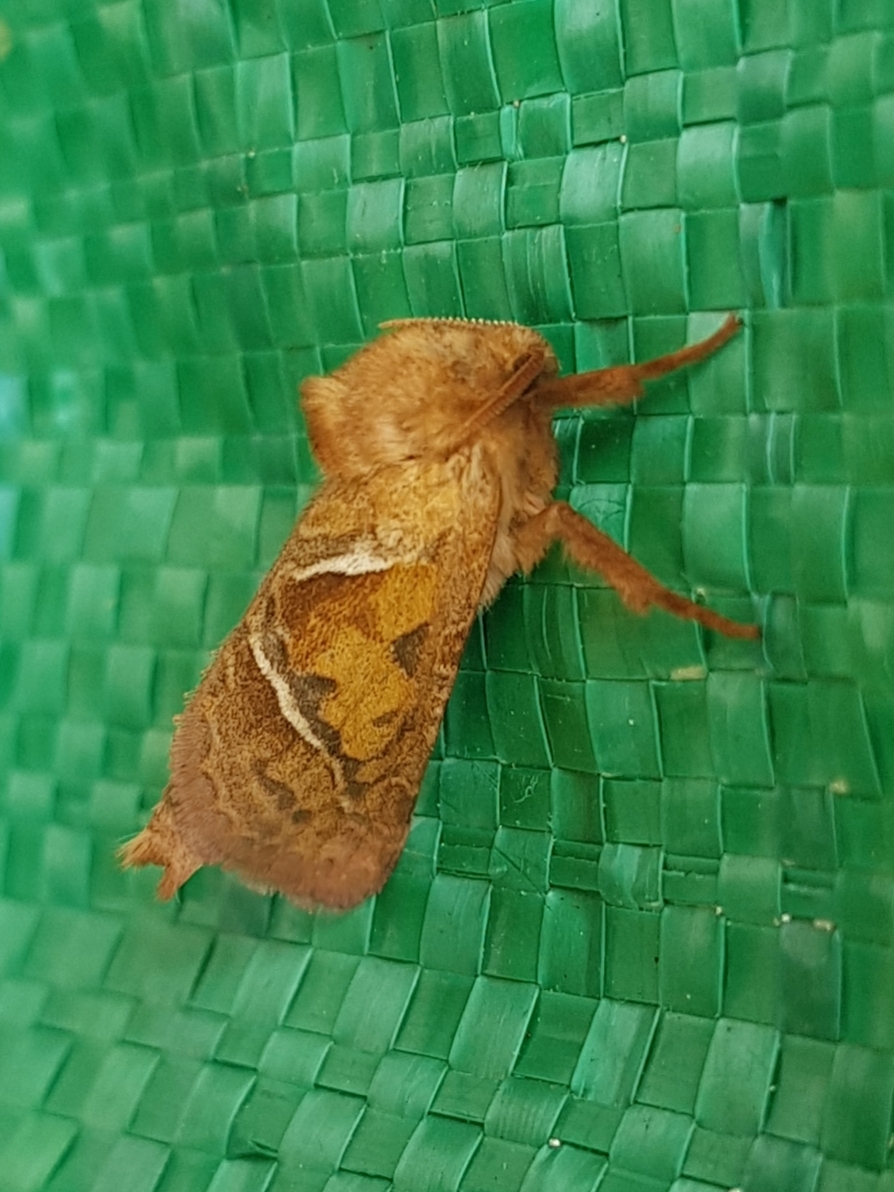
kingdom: Animalia
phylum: Arthropoda
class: Insecta
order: Lepidoptera
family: Hepialidae
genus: Triodia
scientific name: Triodia sylvina
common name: Orange swift
